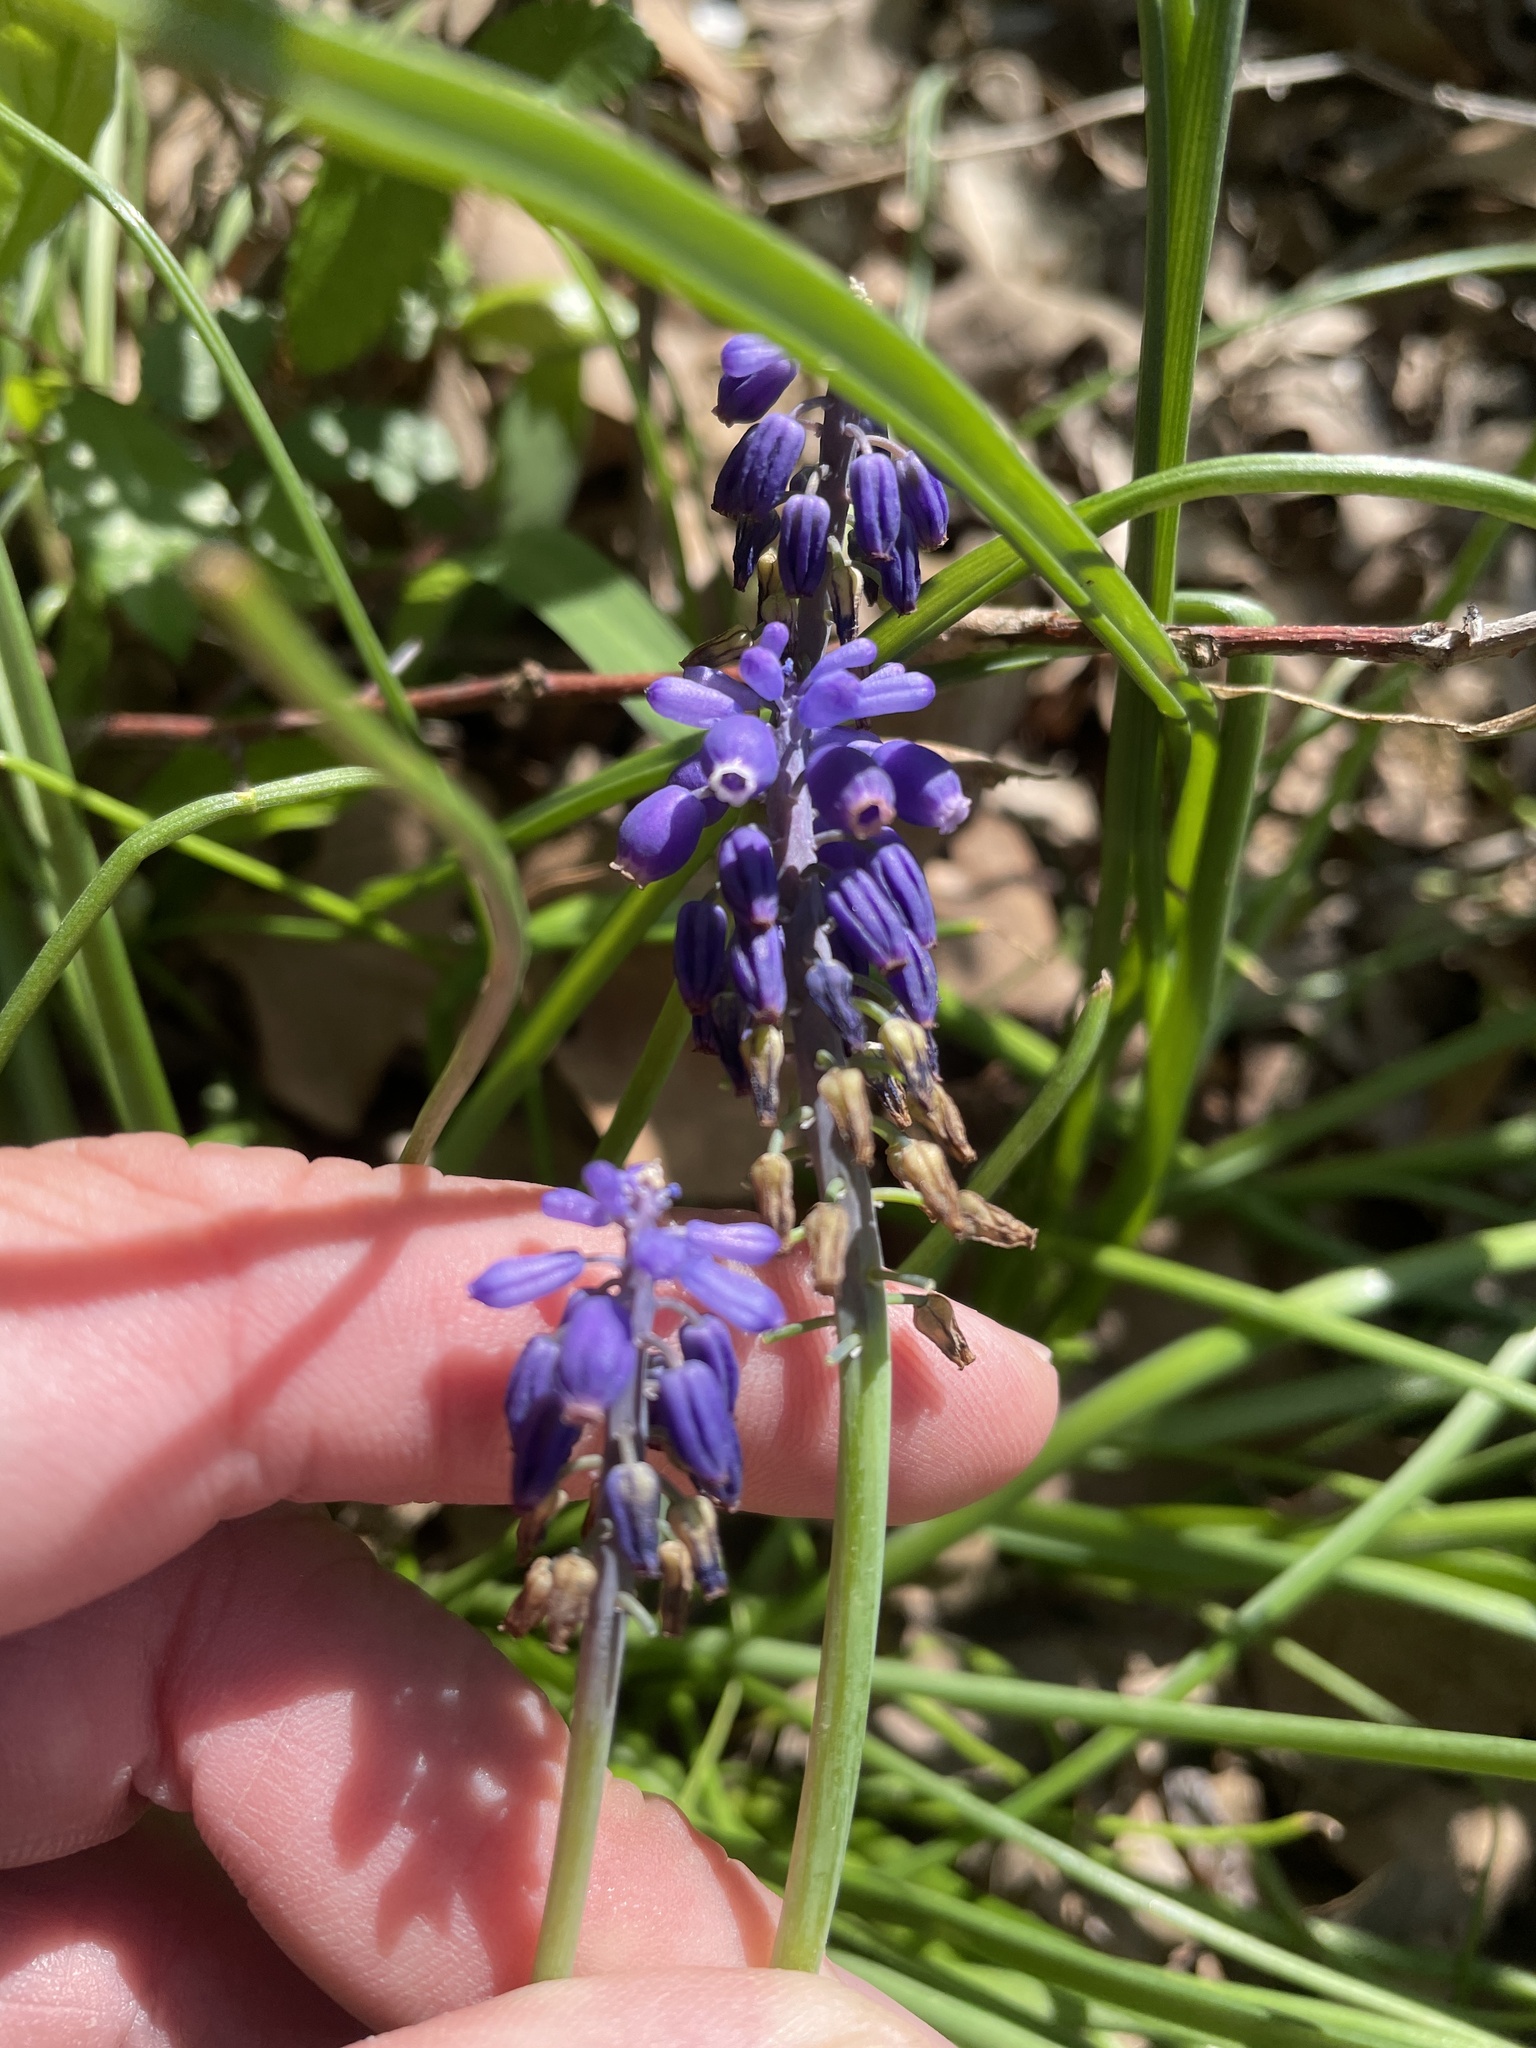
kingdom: Plantae
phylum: Tracheophyta
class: Liliopsida
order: Asparagales
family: Asparagaceae
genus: Muscari
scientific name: Muscari neglectum
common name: Grape-hyacinth
